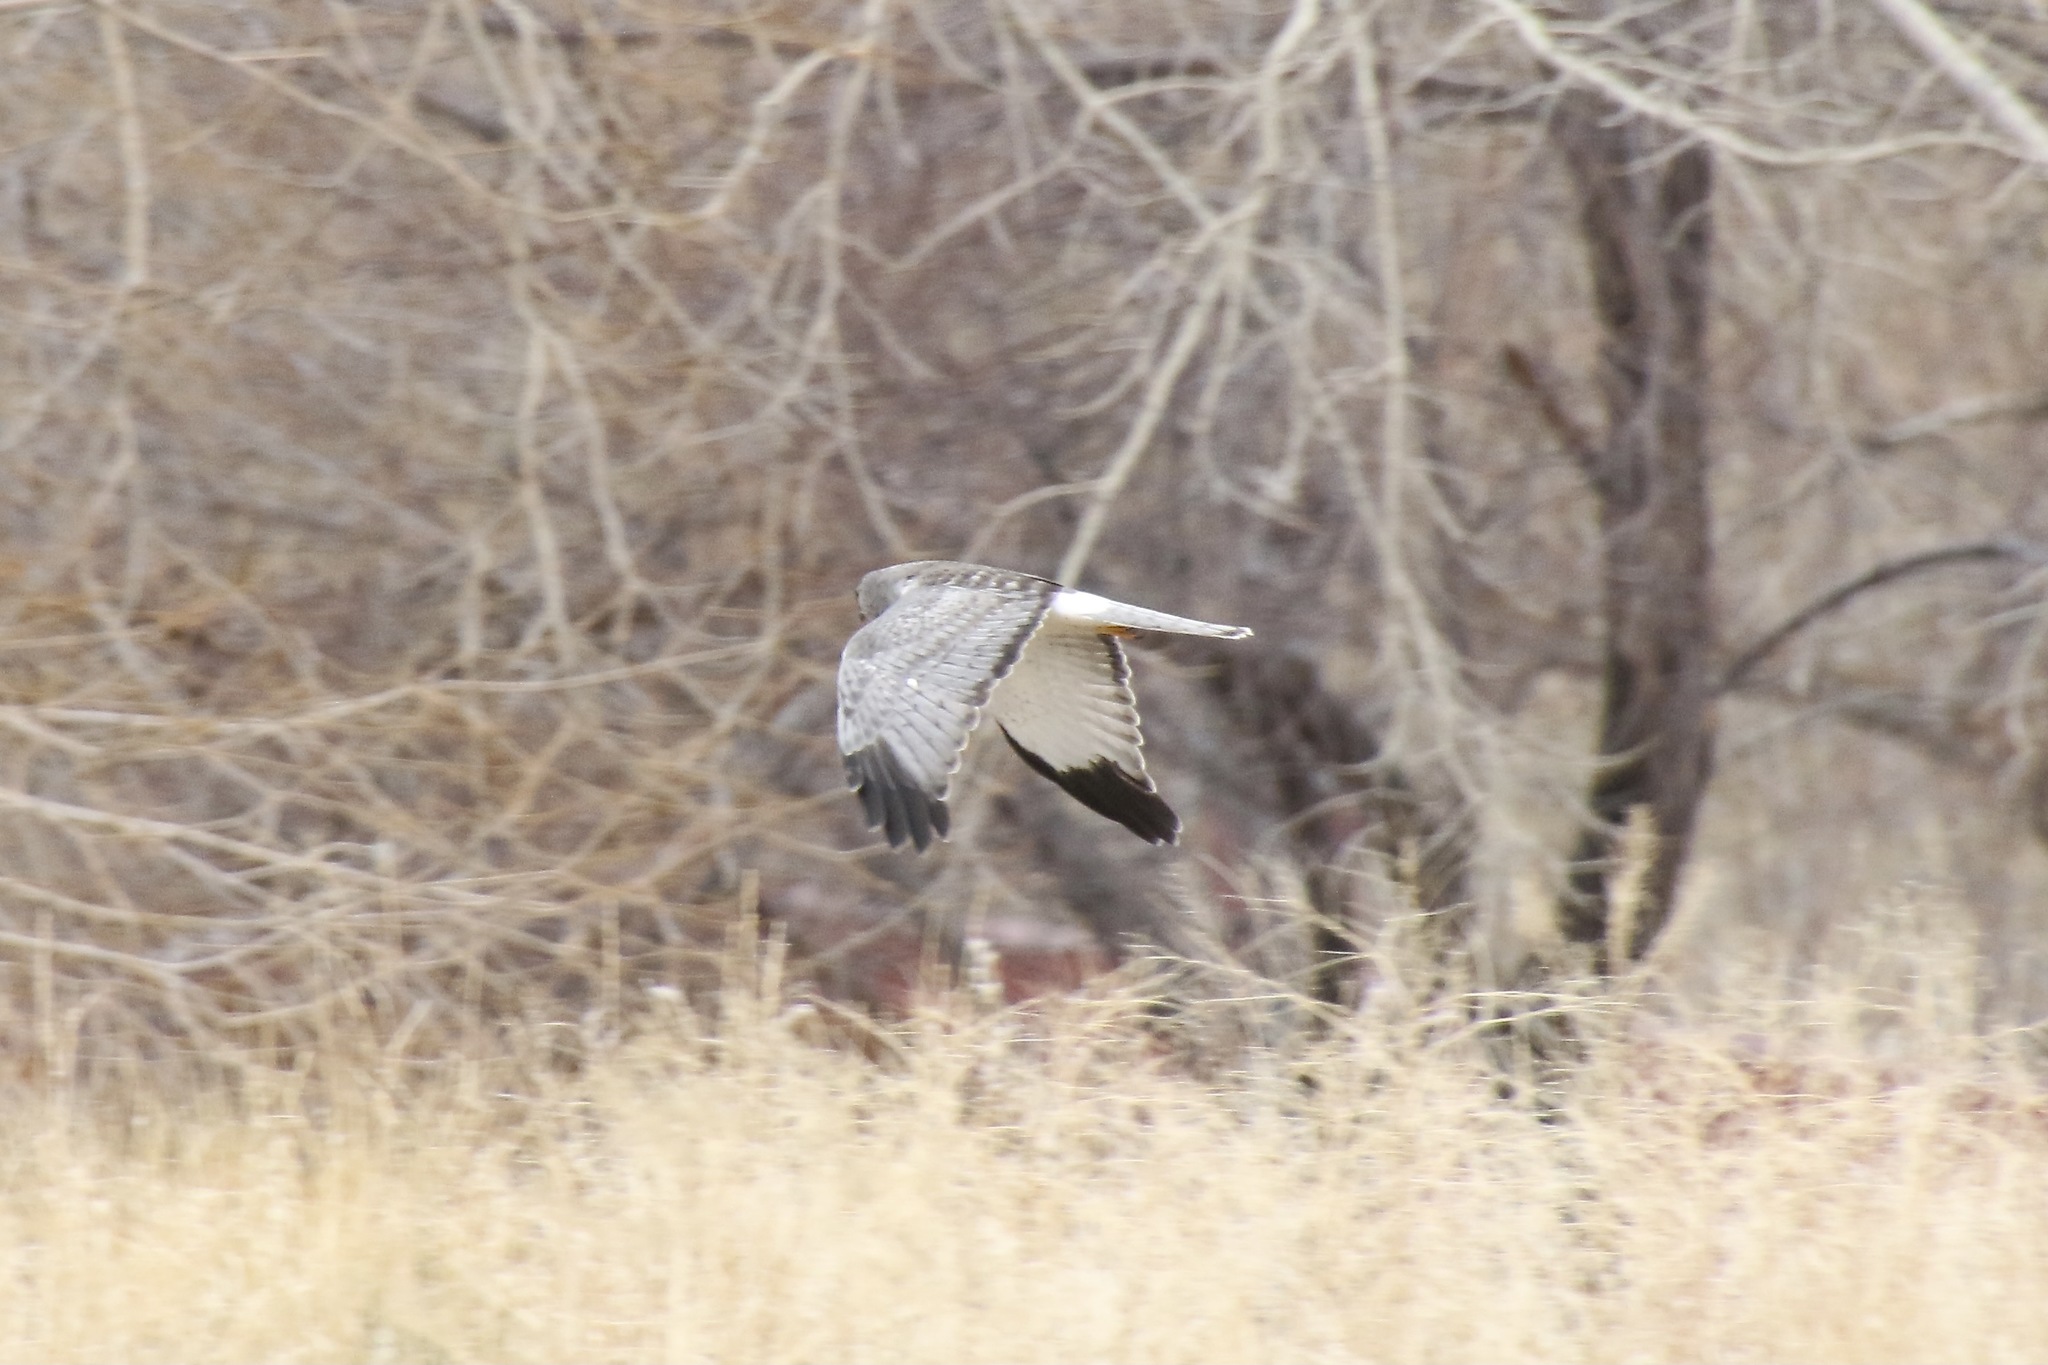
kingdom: Animalia
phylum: Chordata
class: Aves
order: Accipitriformes
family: Accipitridae
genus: Circus
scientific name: Circus cyaneus
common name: Hen harrier
